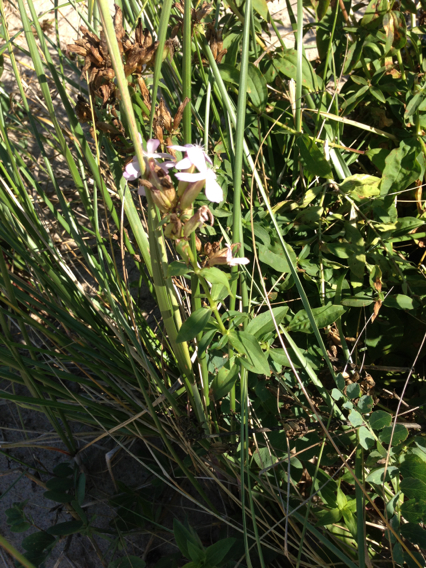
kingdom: Plantae
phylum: Tracheophyta
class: Magnoliopsida
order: Caryophyllales
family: Caryophyllaceae
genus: Saponaria
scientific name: Saponaria officinalis
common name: Soapwort
